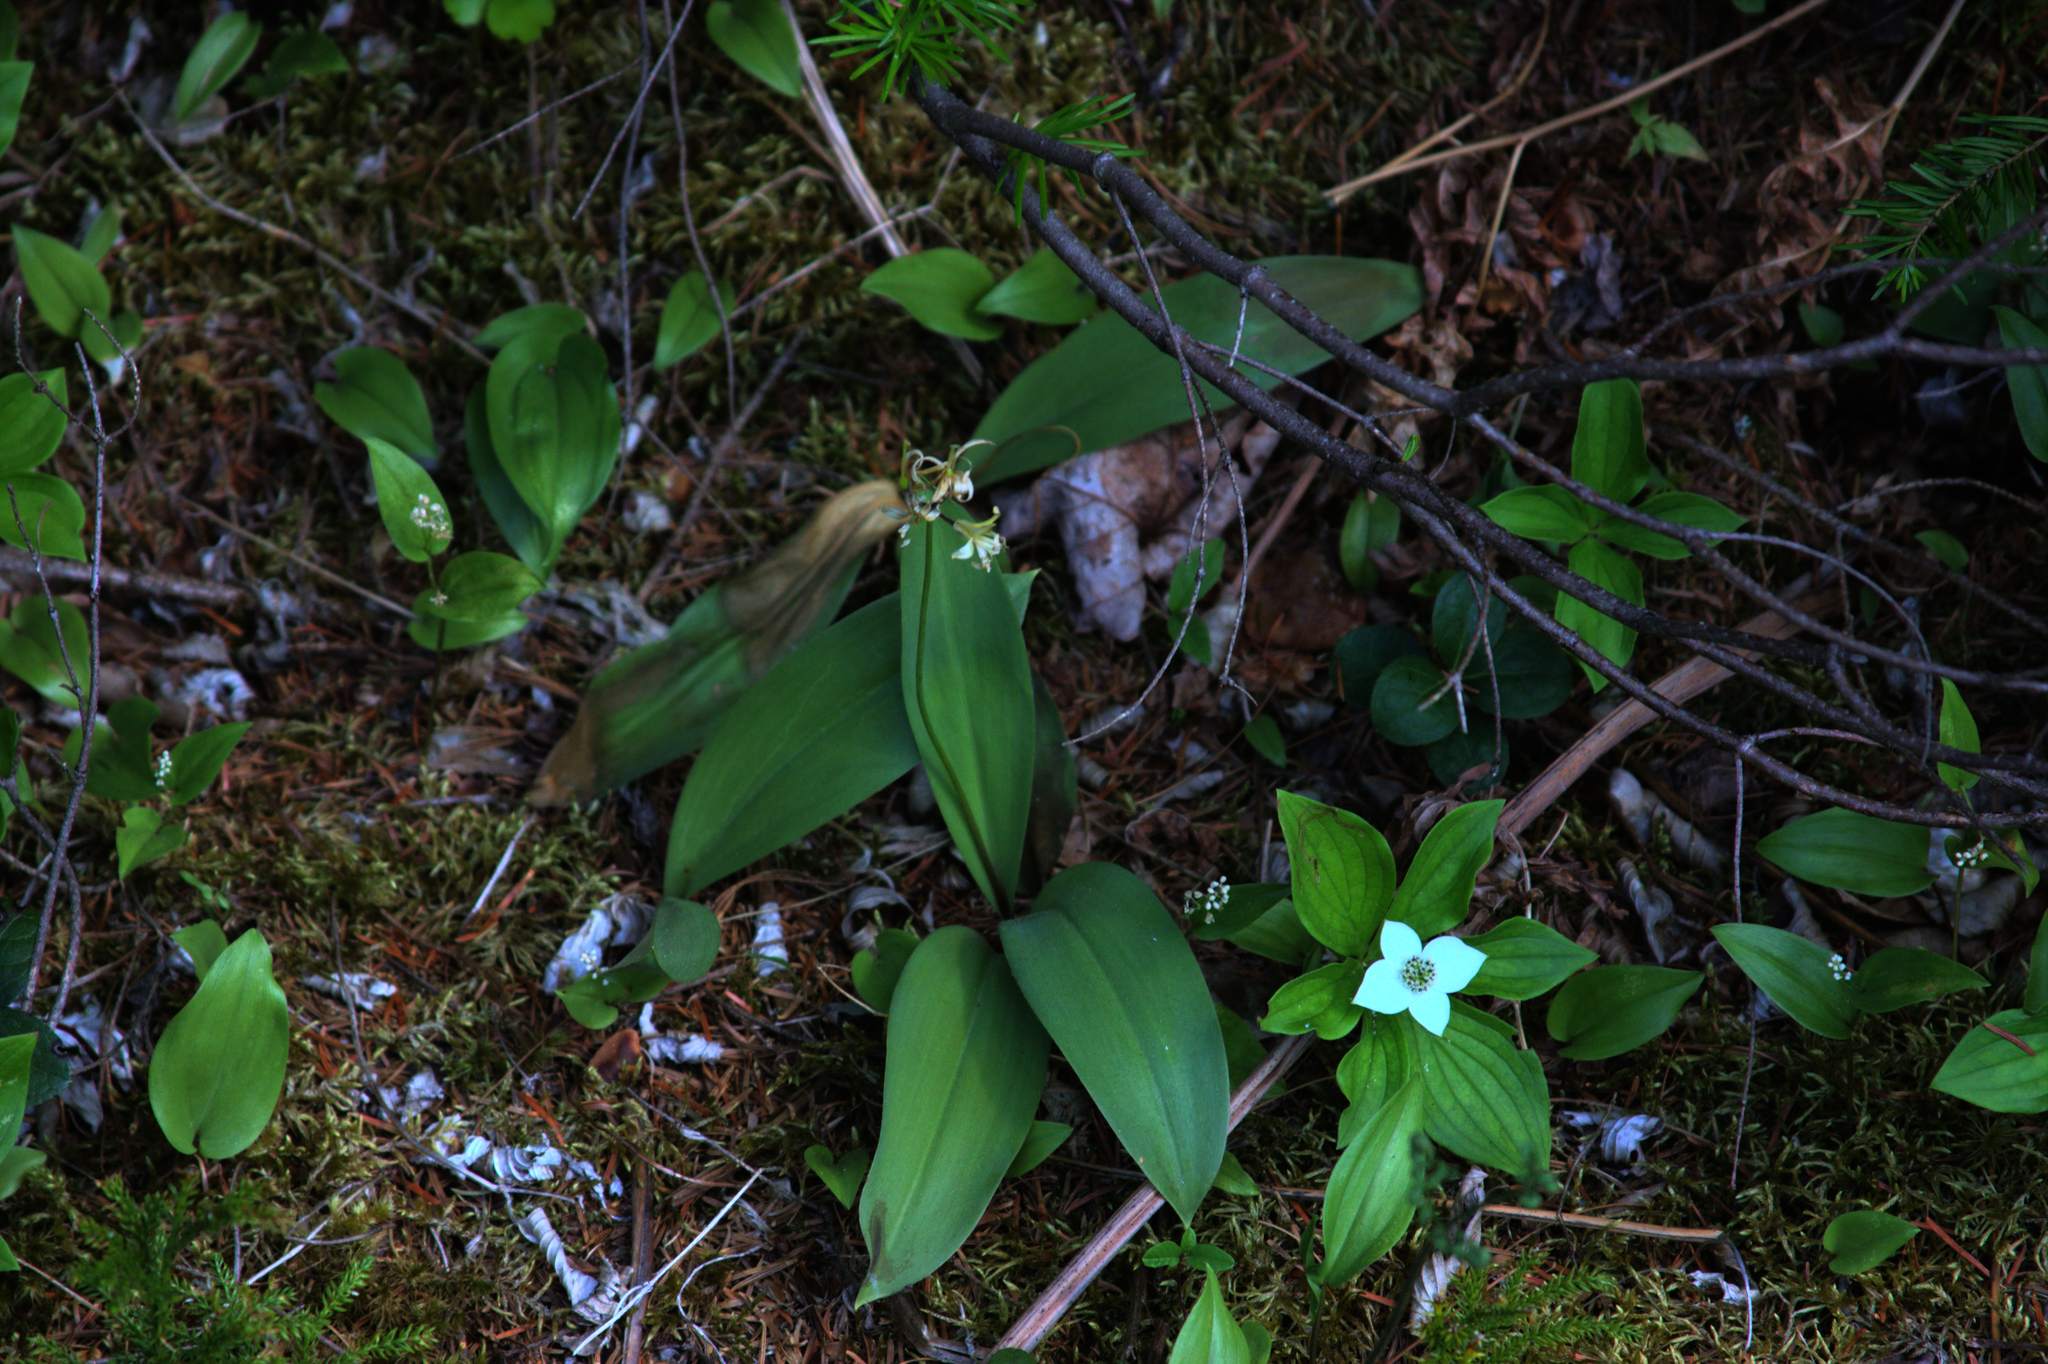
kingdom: Plantae
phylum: Tracheophyta
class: Liliopsida
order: Liliales
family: Liliaceae
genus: Clintonia
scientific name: Clintonia borealis
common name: Yellow clintonia
